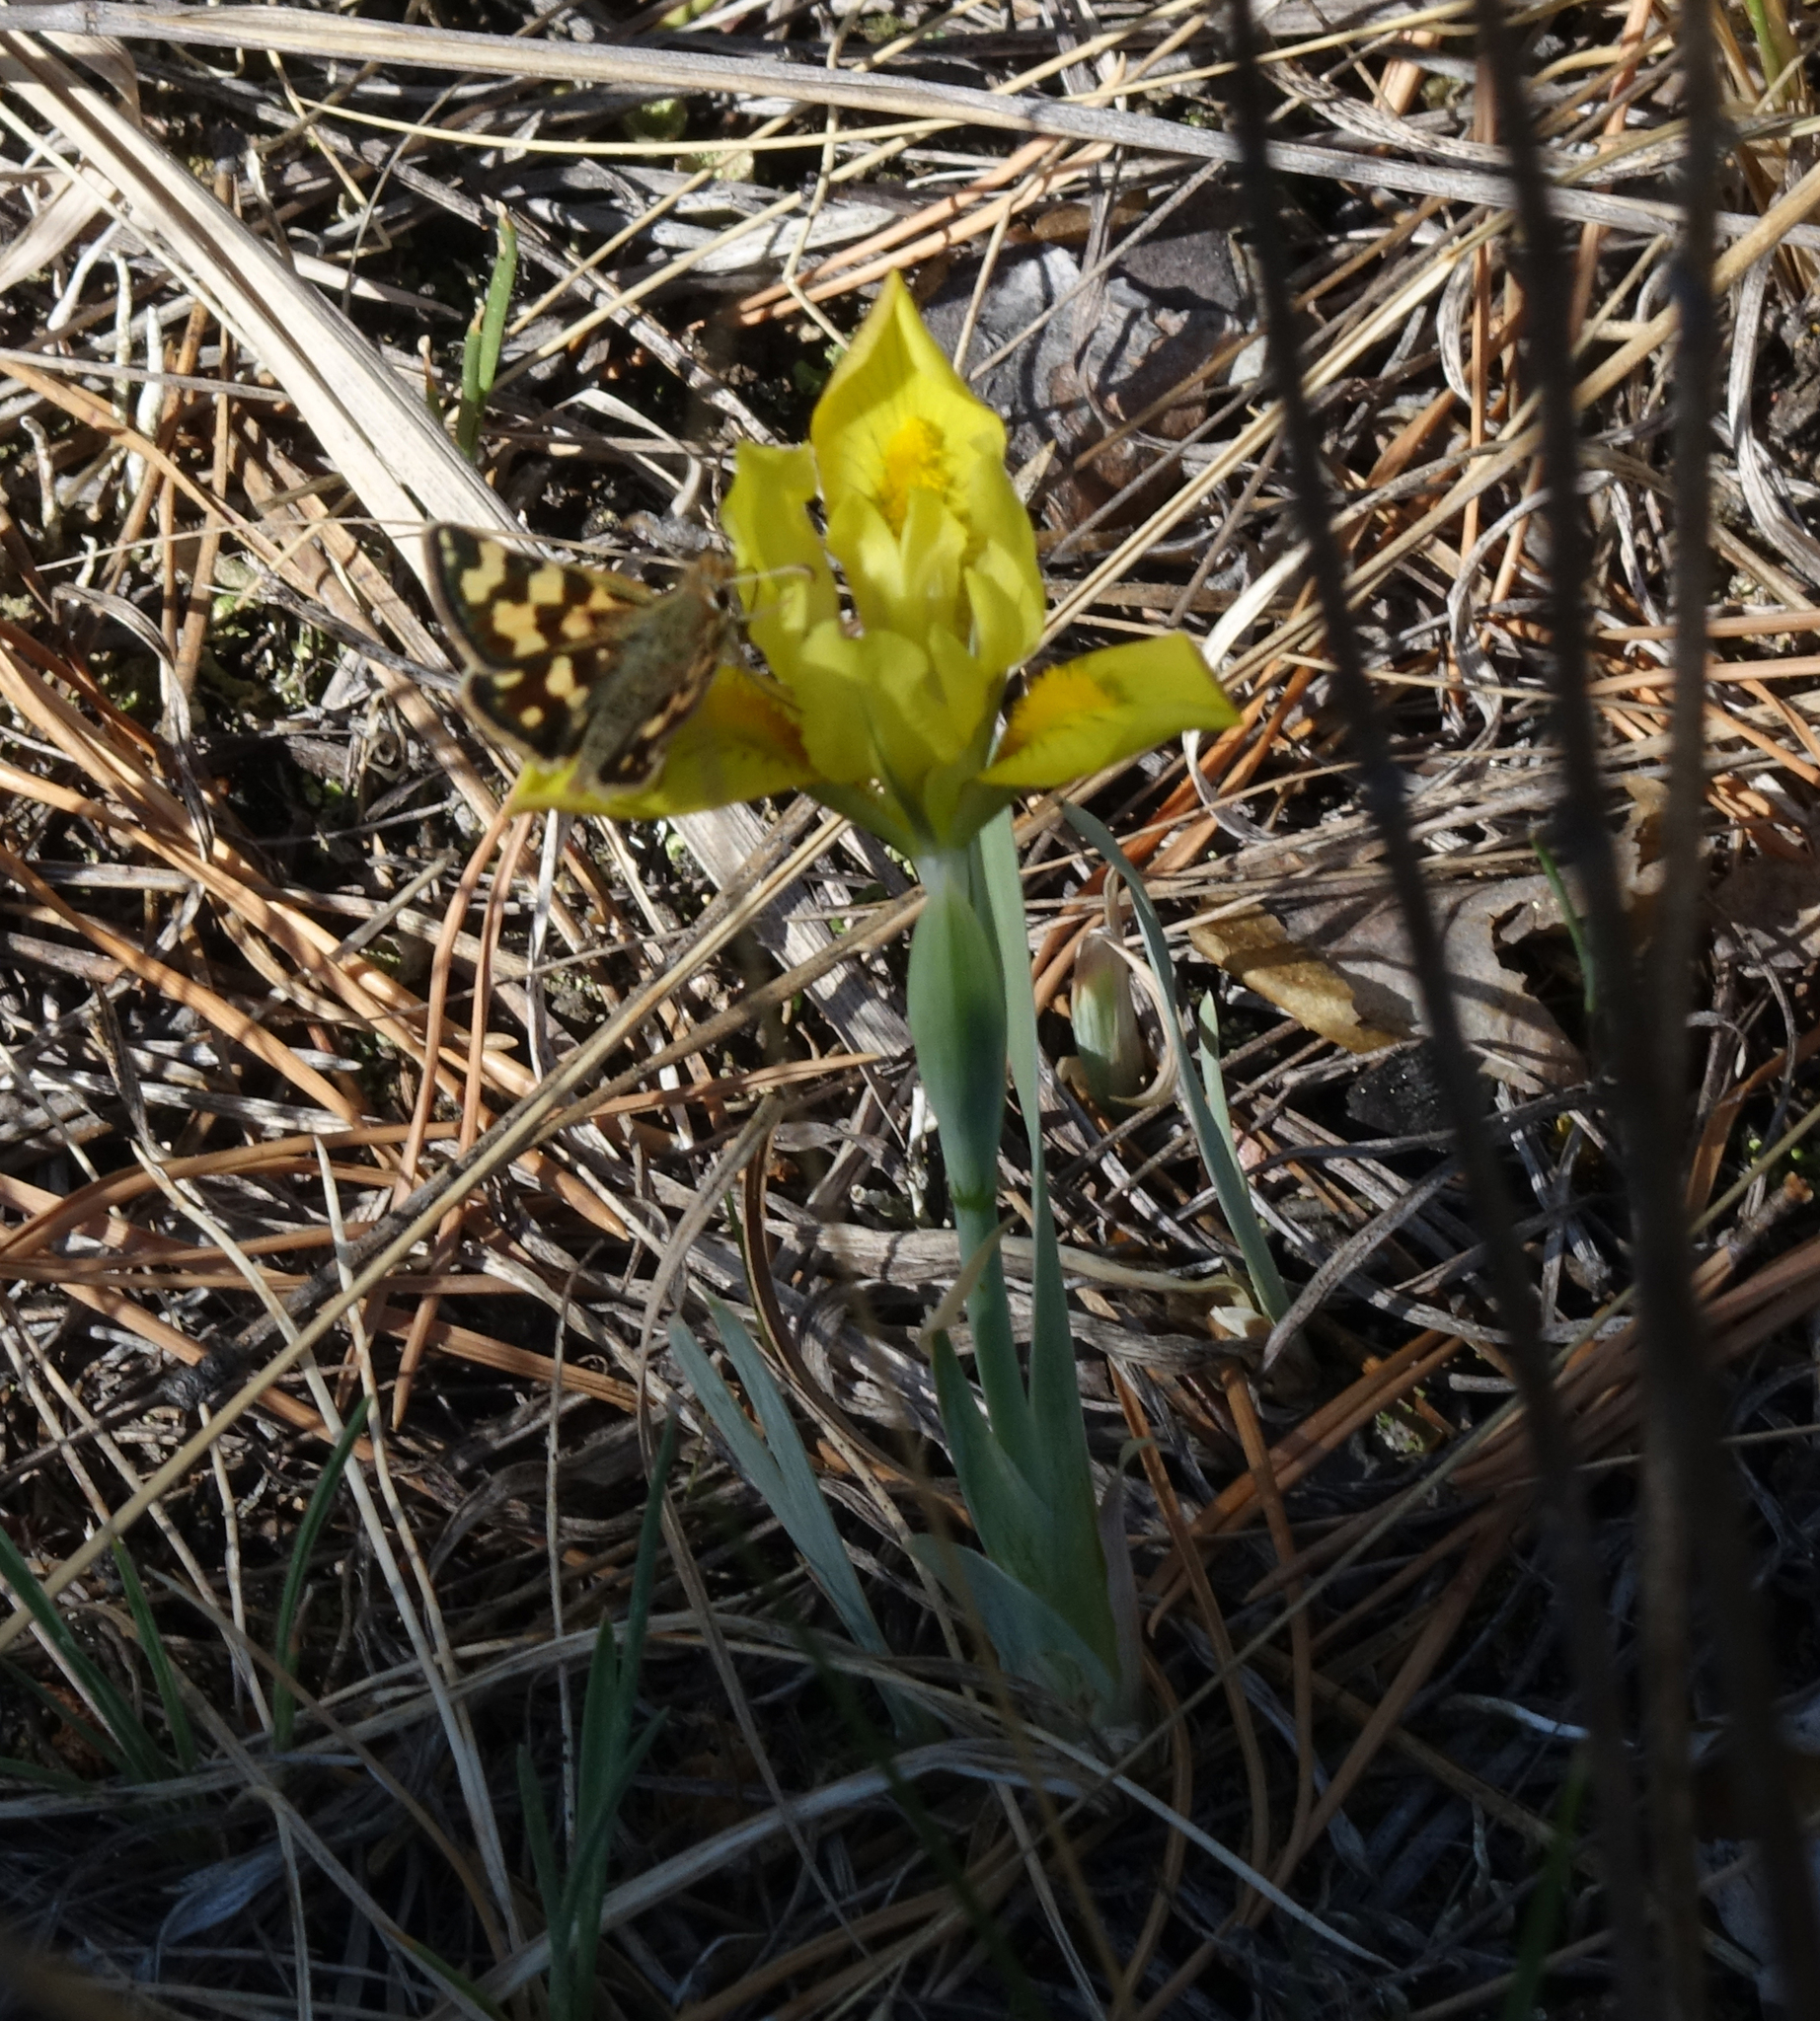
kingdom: Plantae
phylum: Tracheophyta
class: Liliopsida
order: Asparagales
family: Iridaceae
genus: Iris
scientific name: Iris humilis
